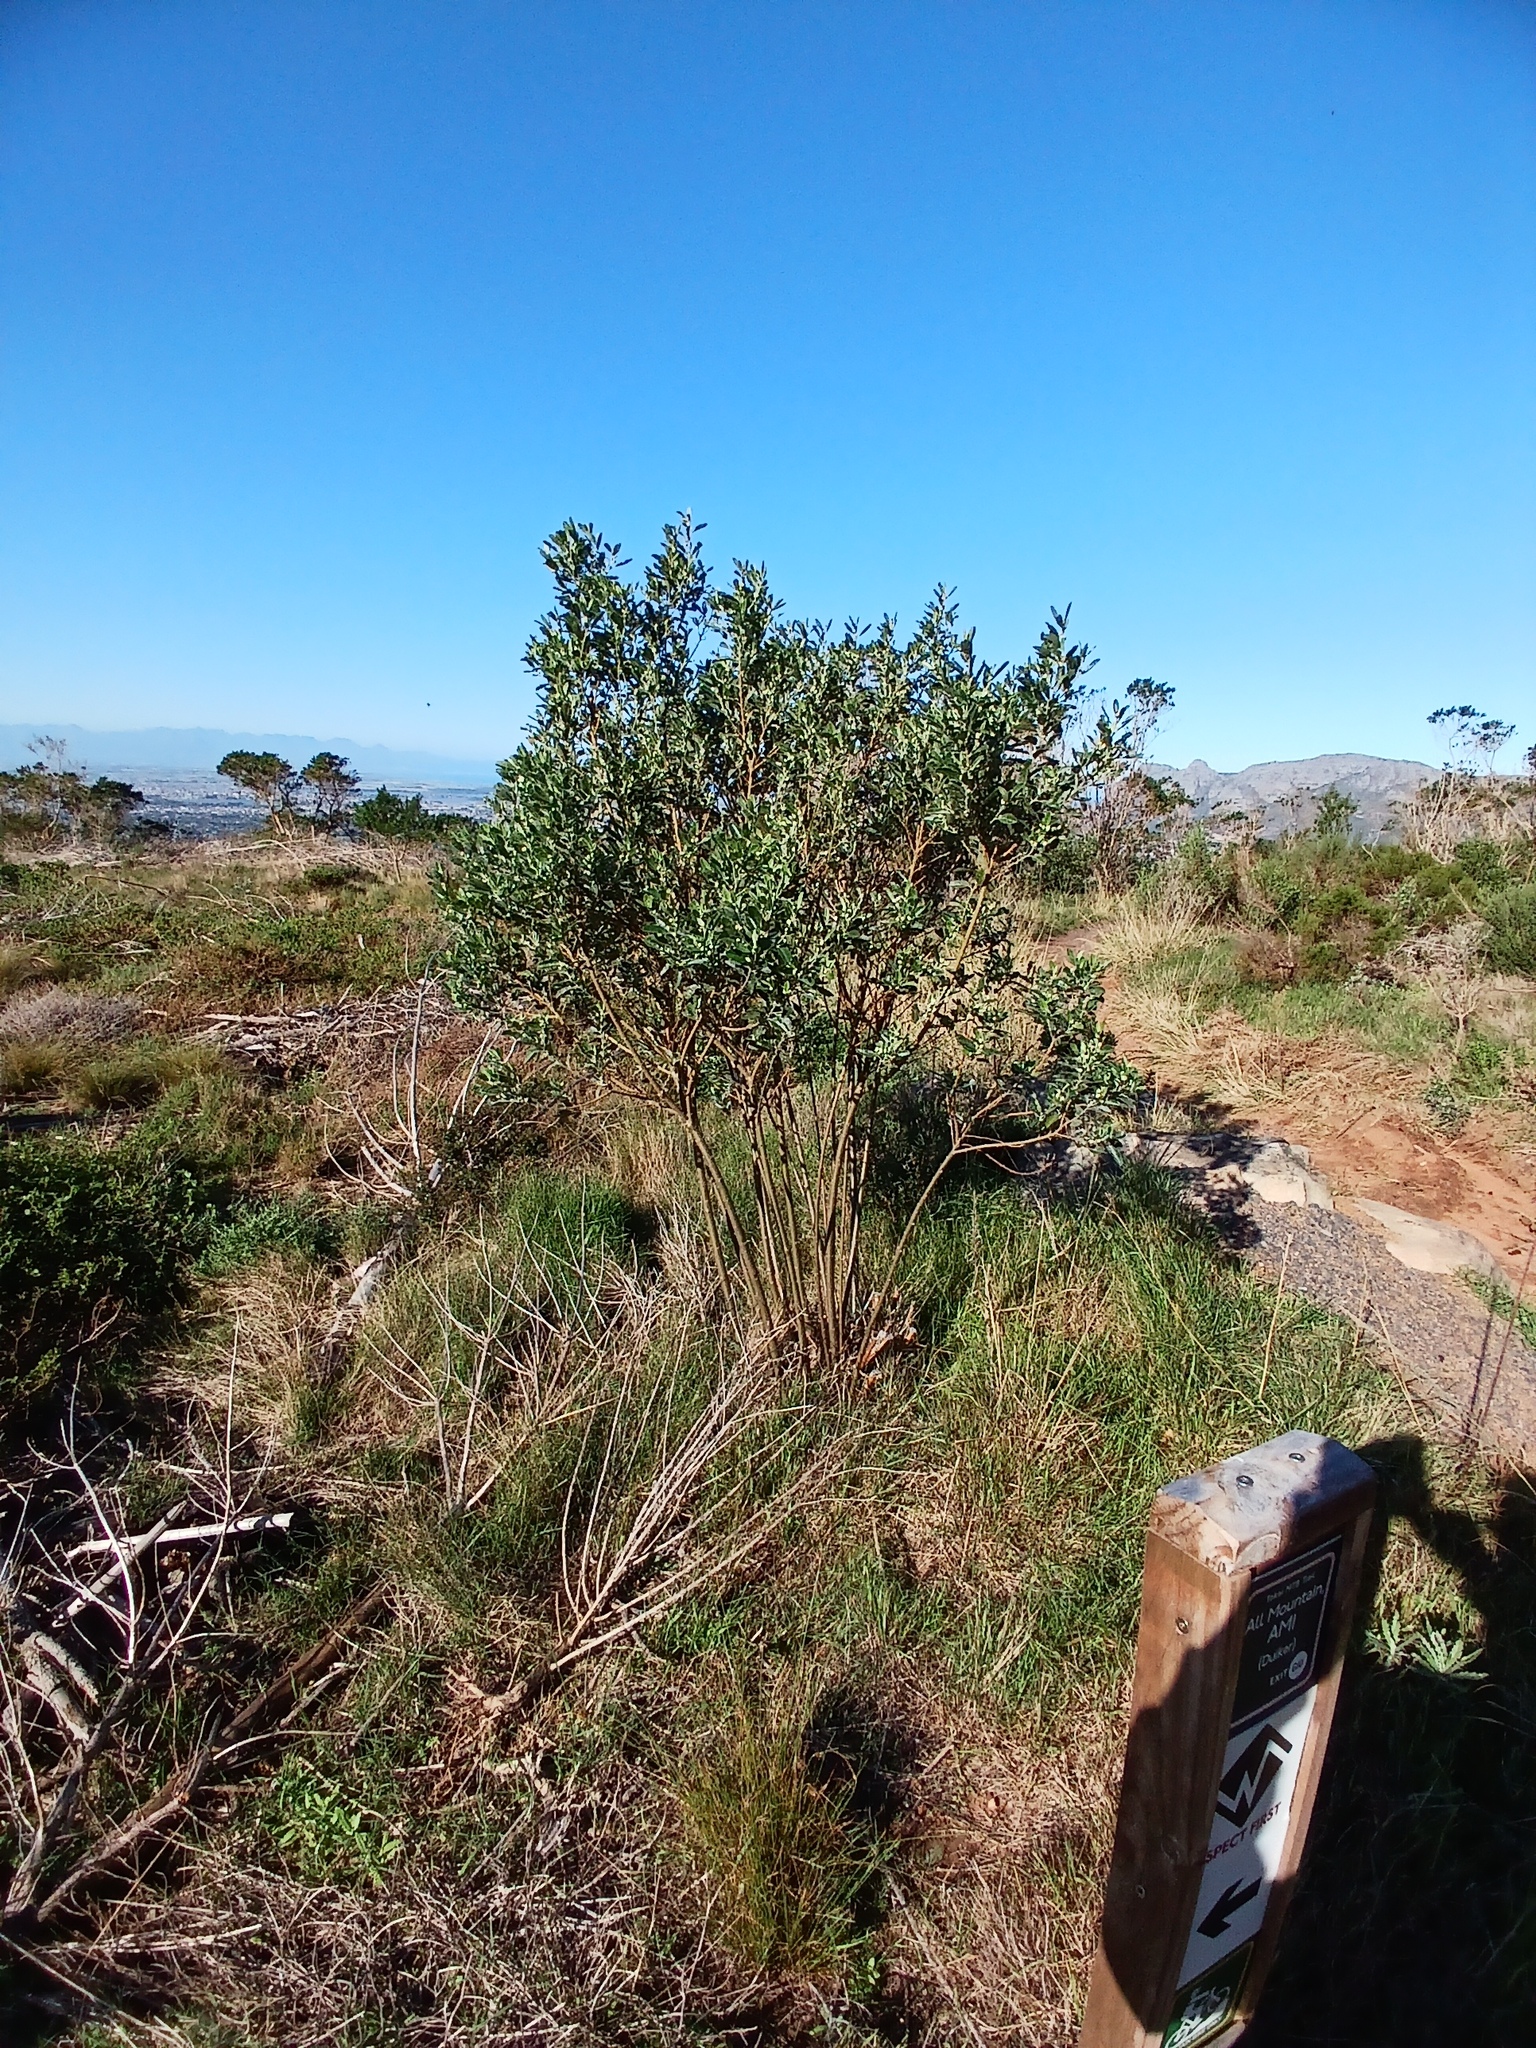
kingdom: Plantae
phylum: Tracheophyta
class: Magnoliopsida
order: Fabales
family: Fabaceae
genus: Podalyria
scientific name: Podalyria calyptrata
